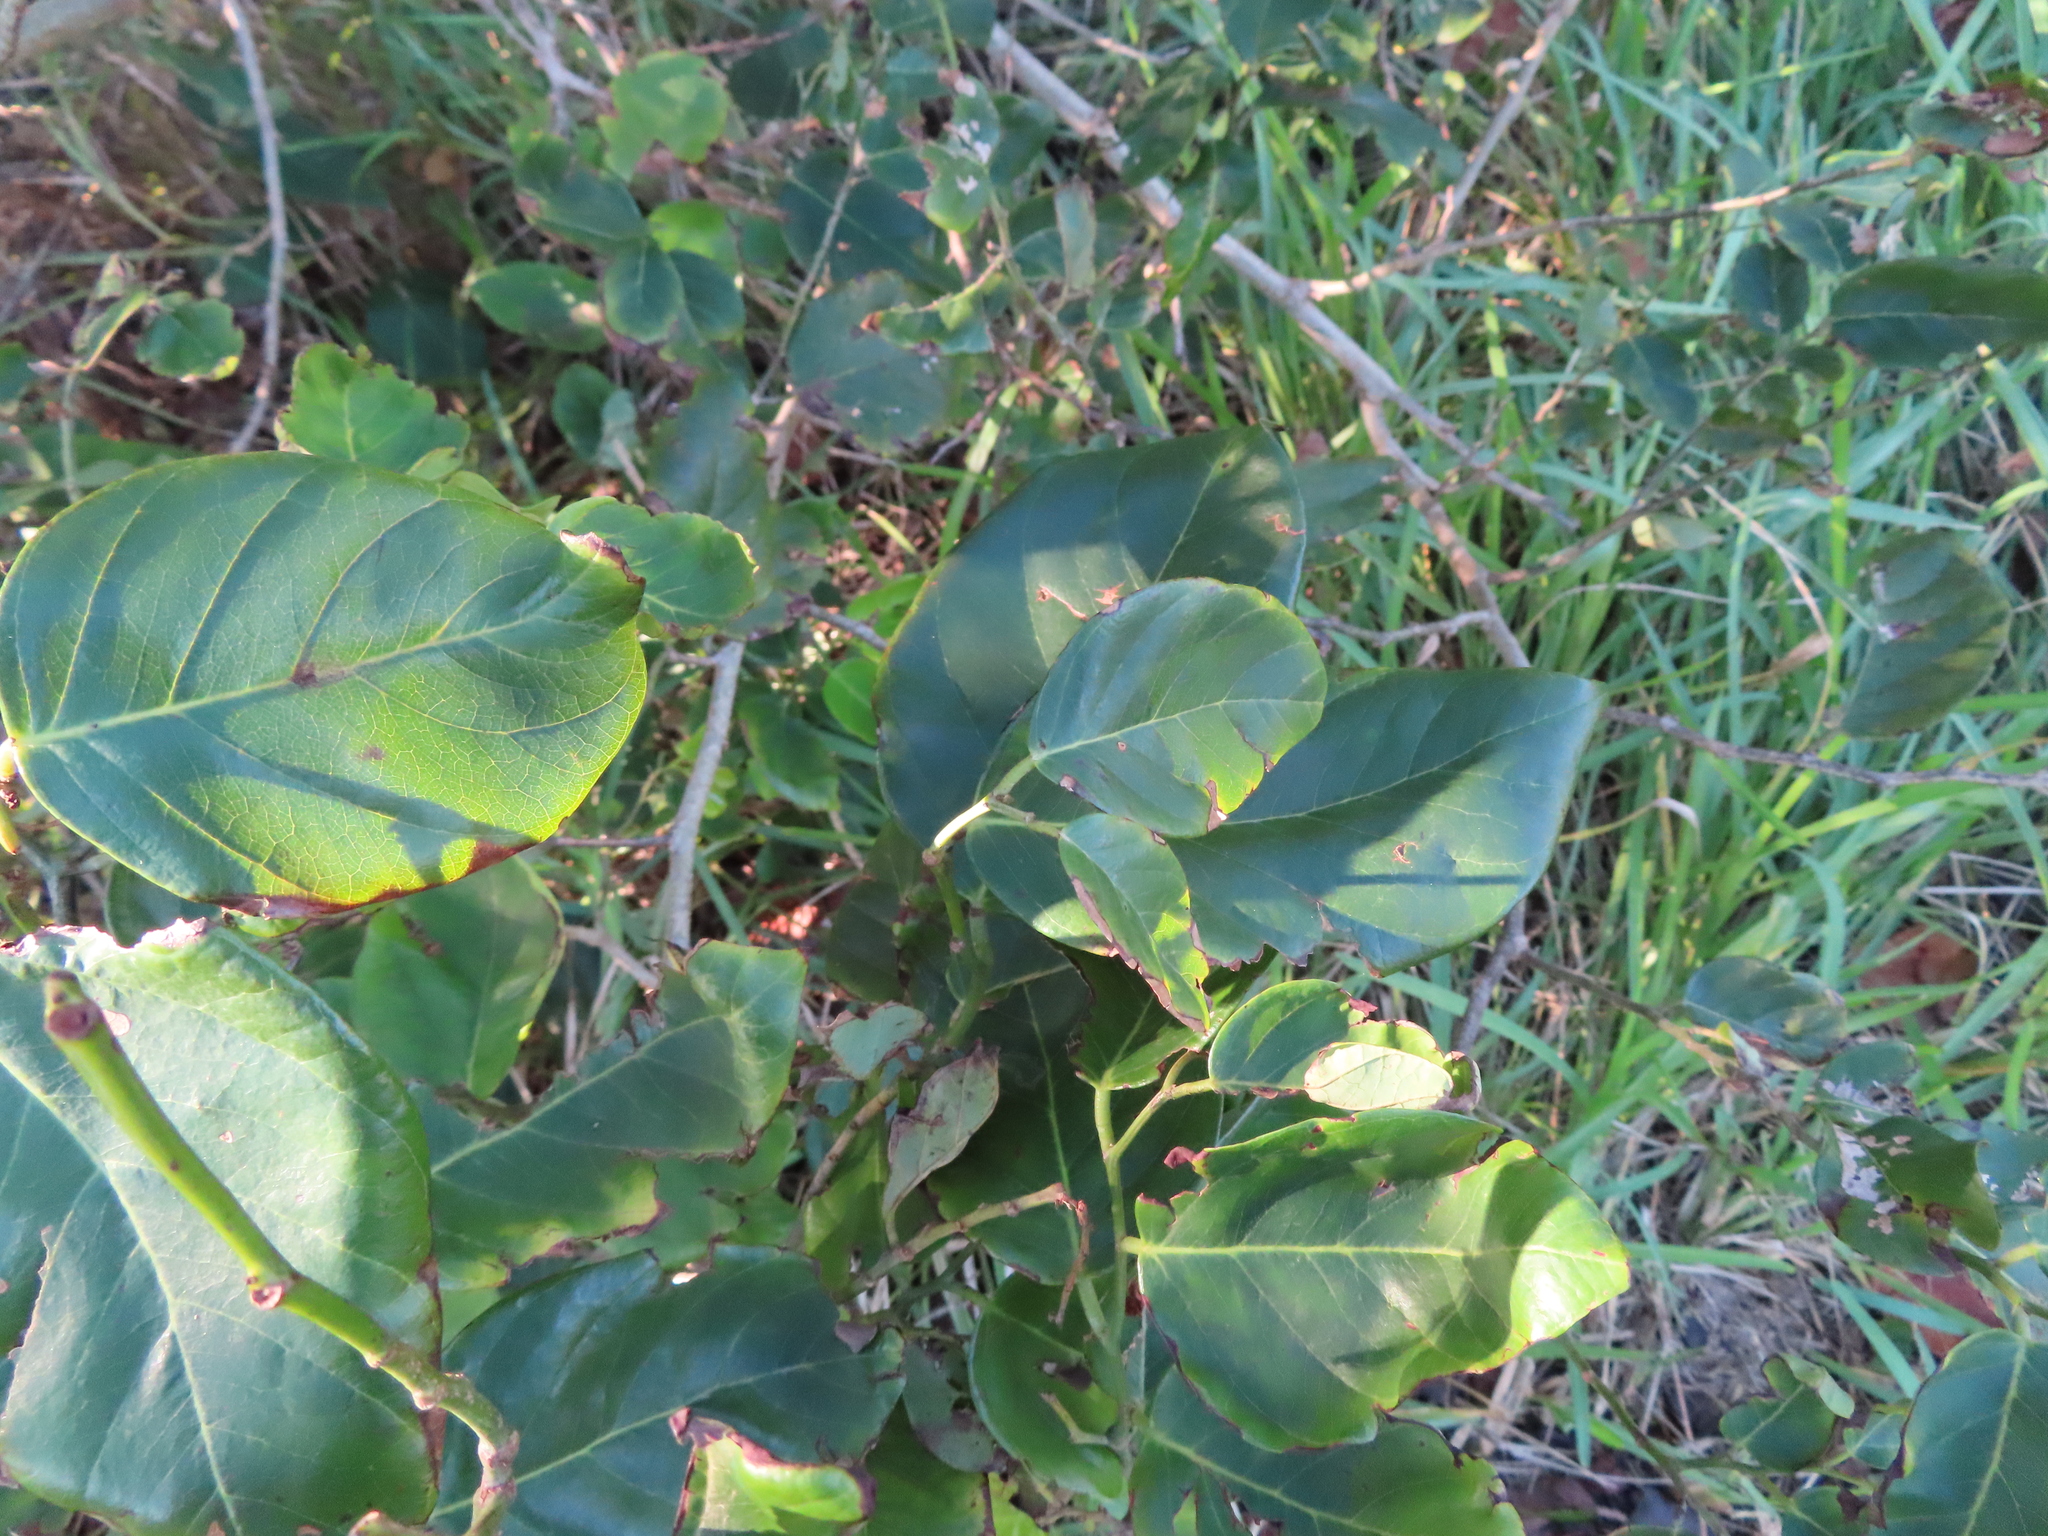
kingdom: Plantae
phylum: Tracheophyta
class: Magnoliopsida
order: Fabales
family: Fabaceae
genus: Dalbergia
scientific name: Dalbergia ecastaphyllum
